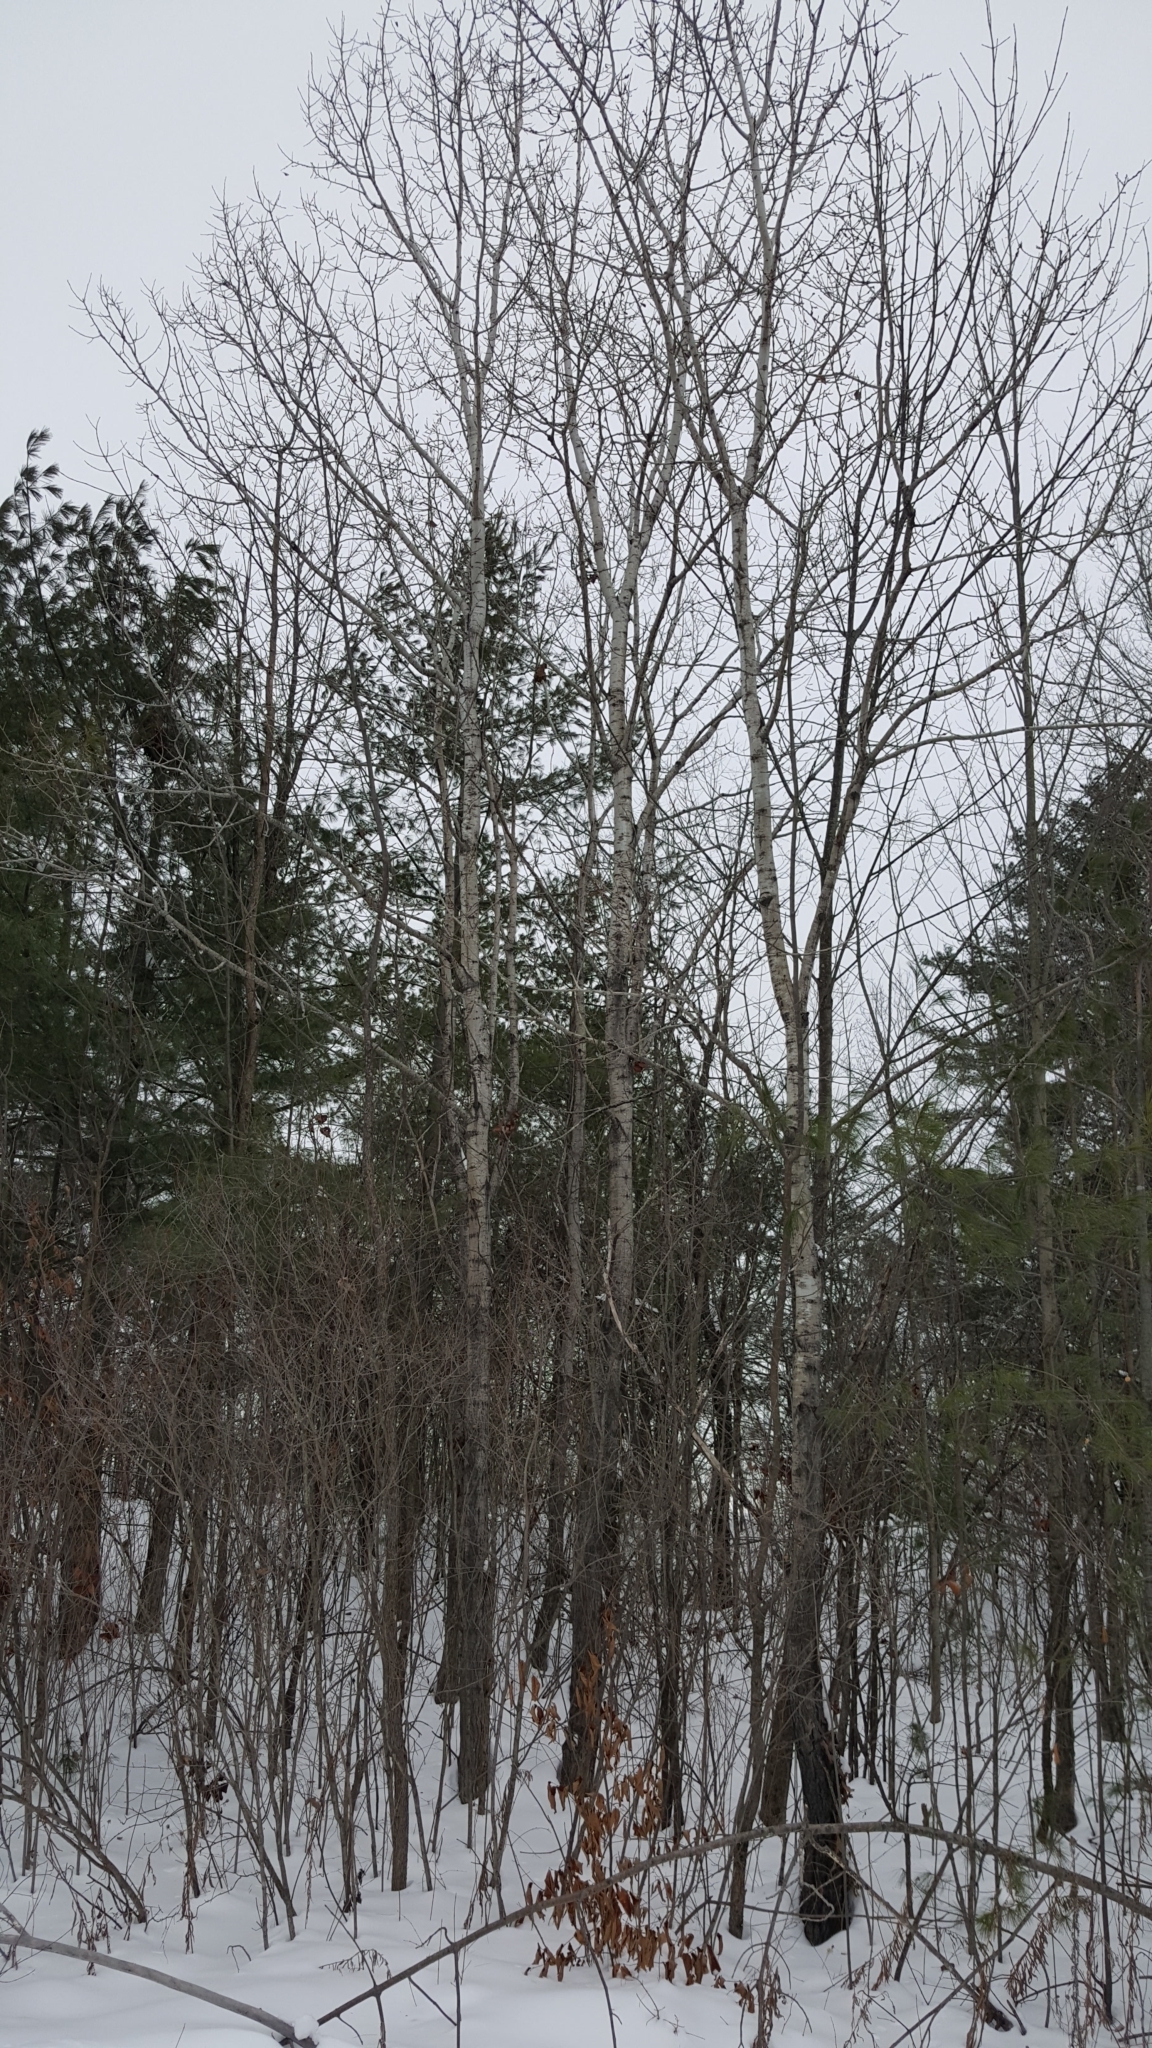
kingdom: Plantae
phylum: Tracheophyta
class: Magnoliopsida
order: Malpighiales
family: Salicaceae
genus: Populus
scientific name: Populus tremuloides
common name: Quaking aspen
